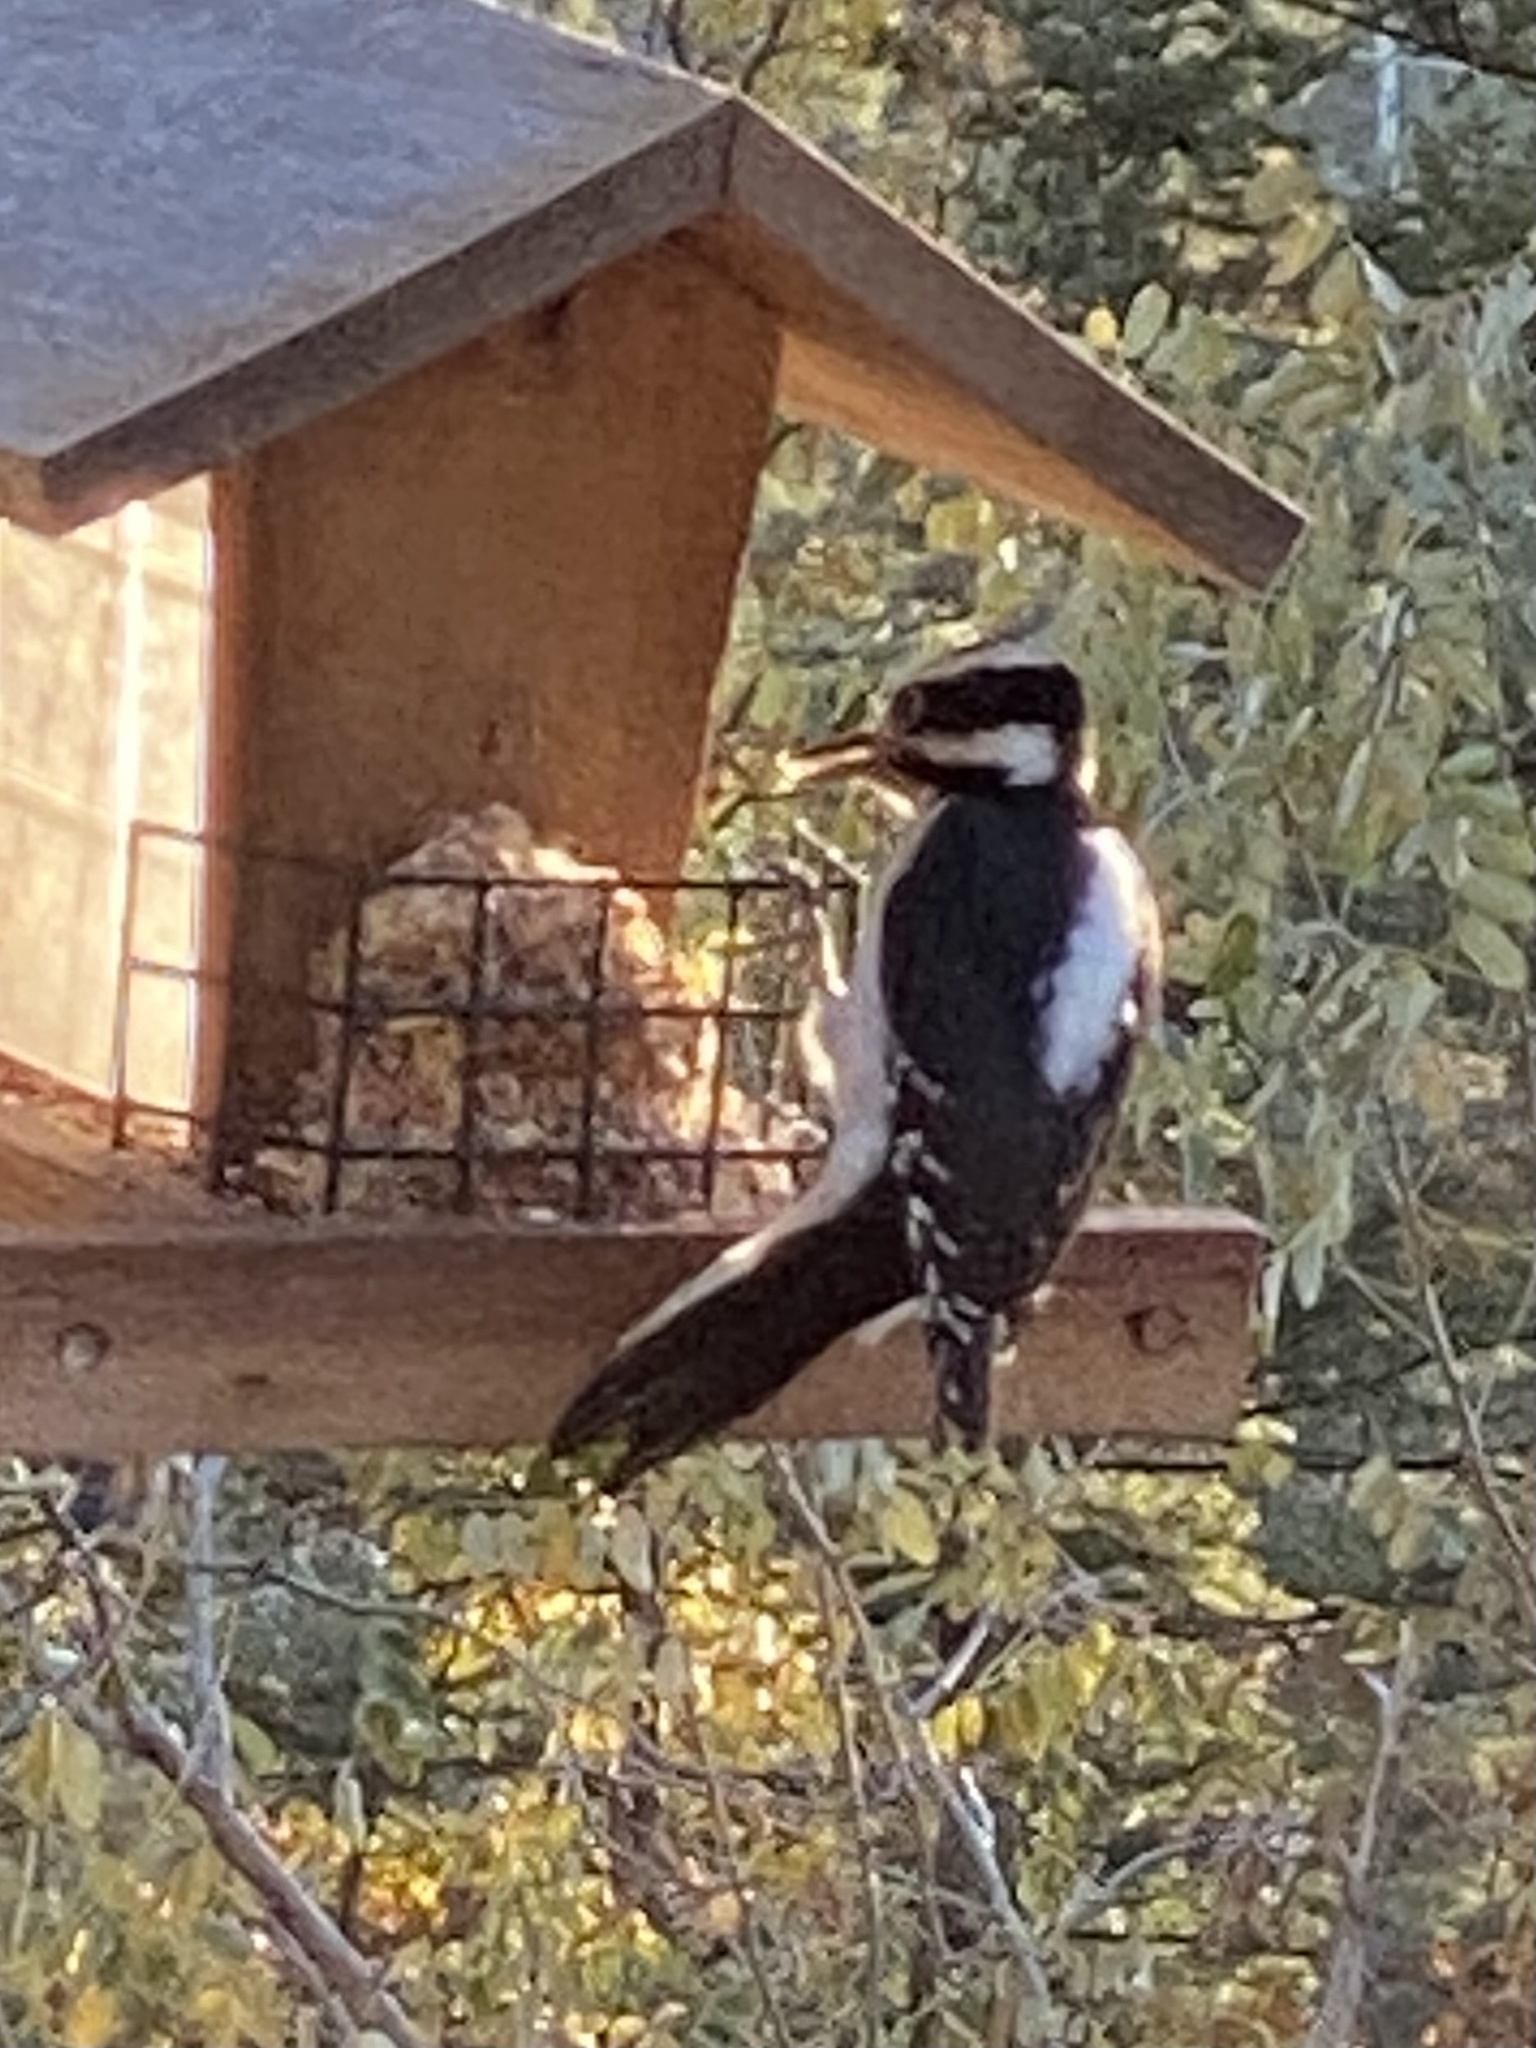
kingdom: Animalia
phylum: Chordata
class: Aves
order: Piciformes
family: Picidae
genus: Leuconotopicus
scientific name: Leuconotopicus villosus
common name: Hairy woodpecker
